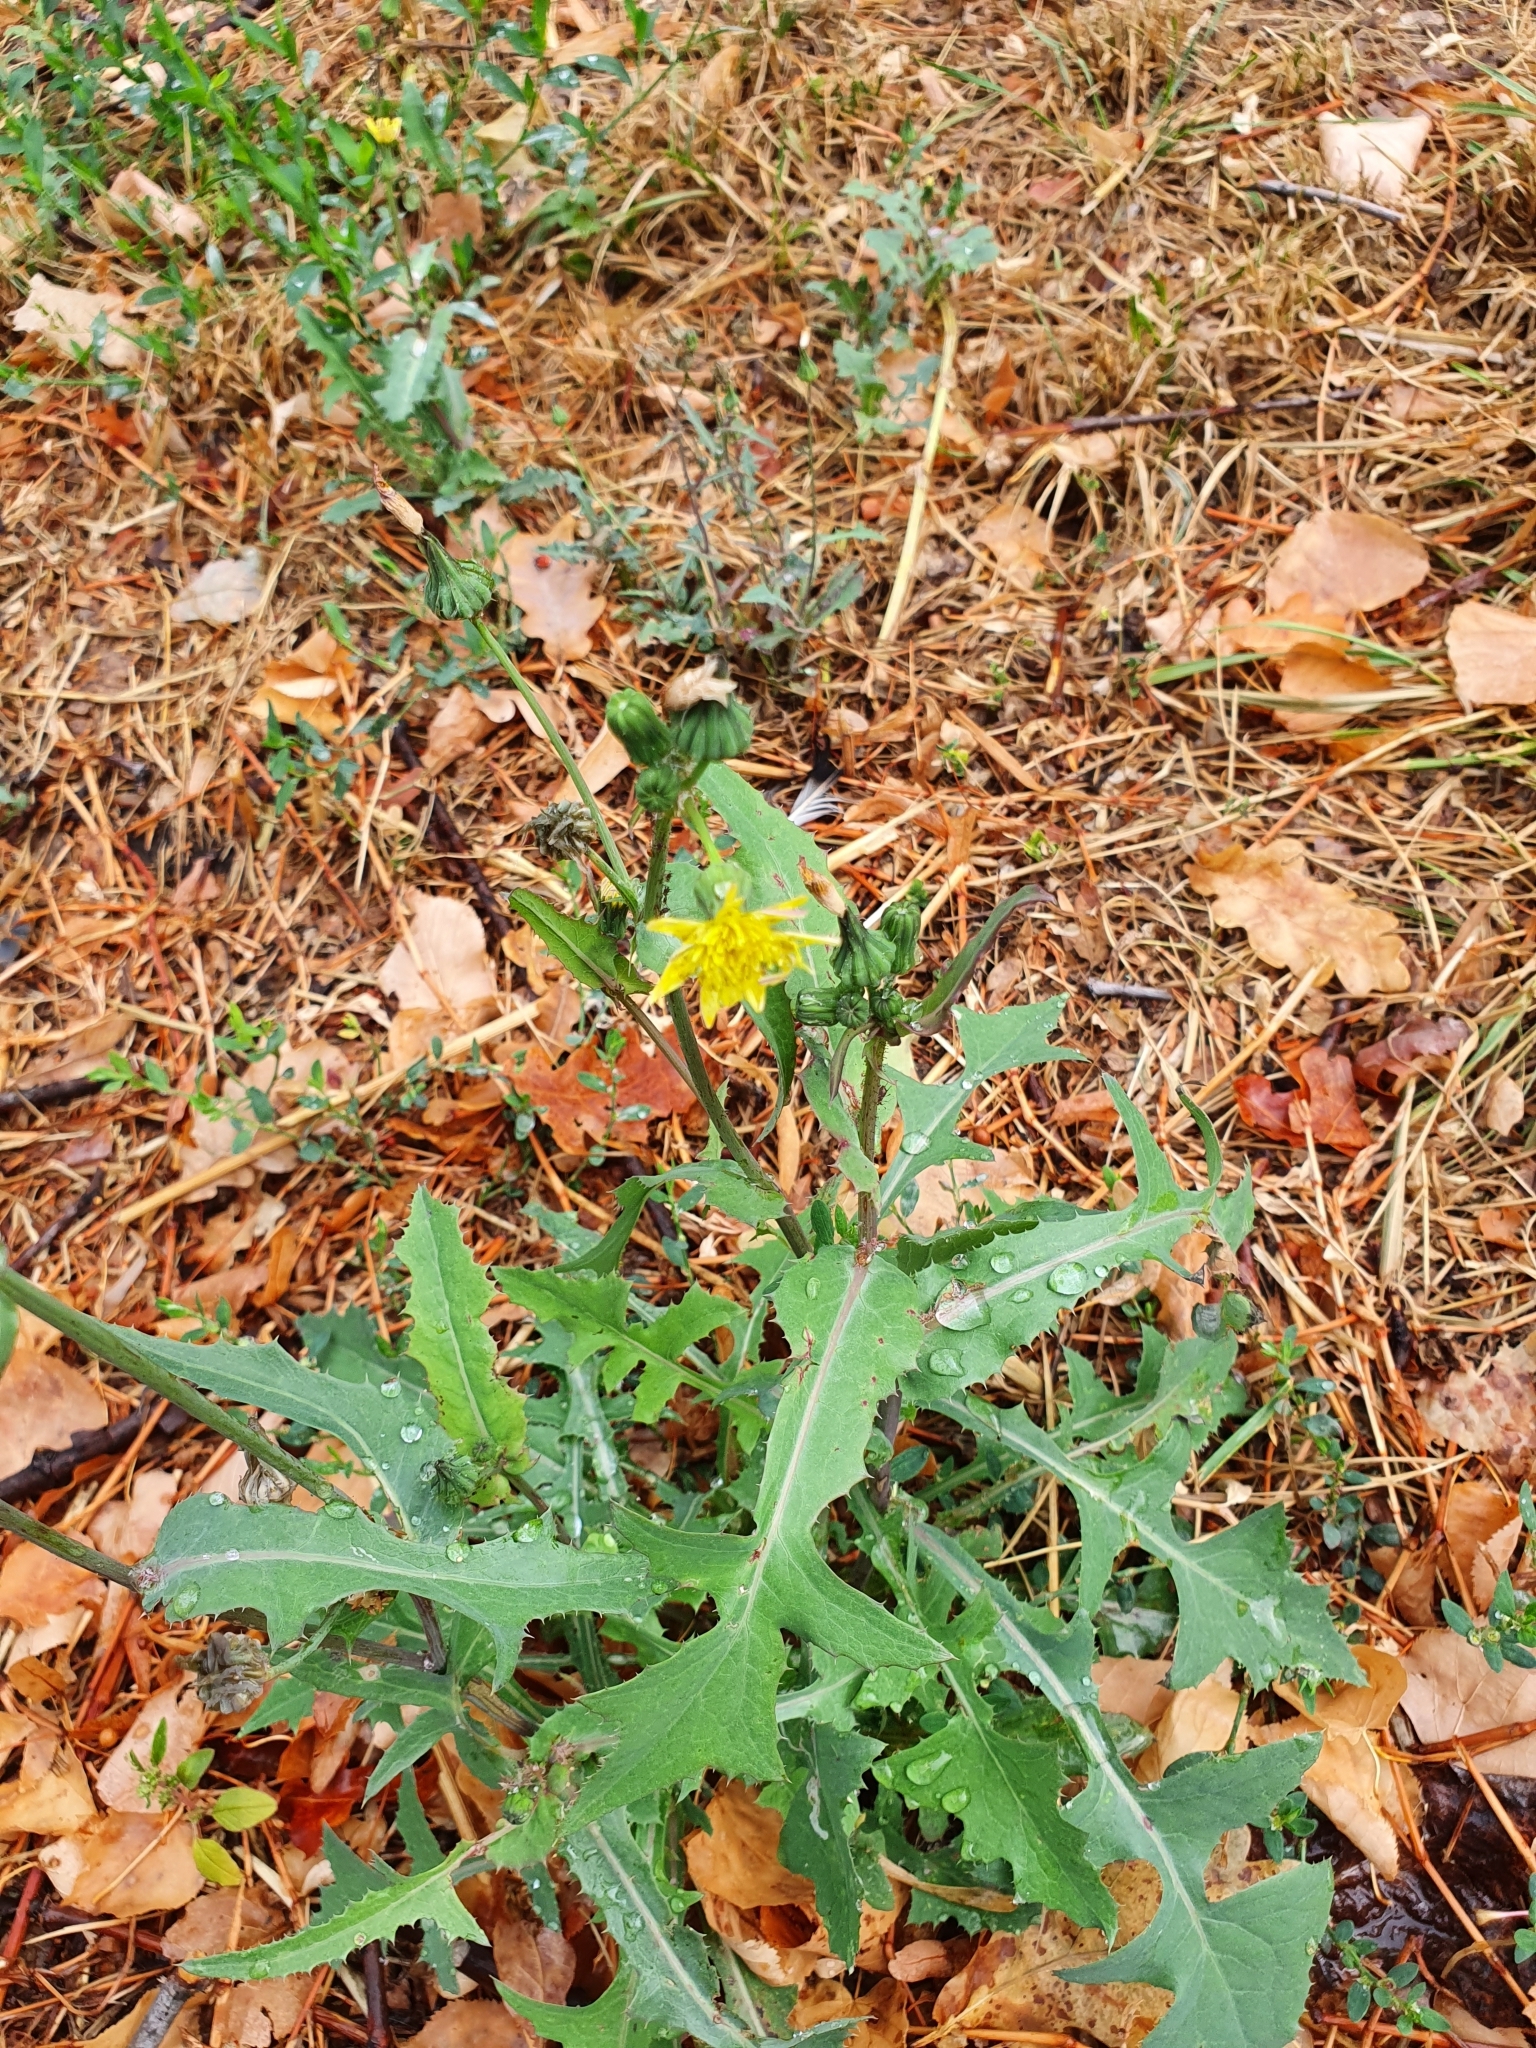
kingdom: Plantae
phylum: Tracheophyta
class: Magnoliopsida
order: Asterales
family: Asteraceae
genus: Sonchus
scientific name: Sonchus oleraceus
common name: Common sowthistle
